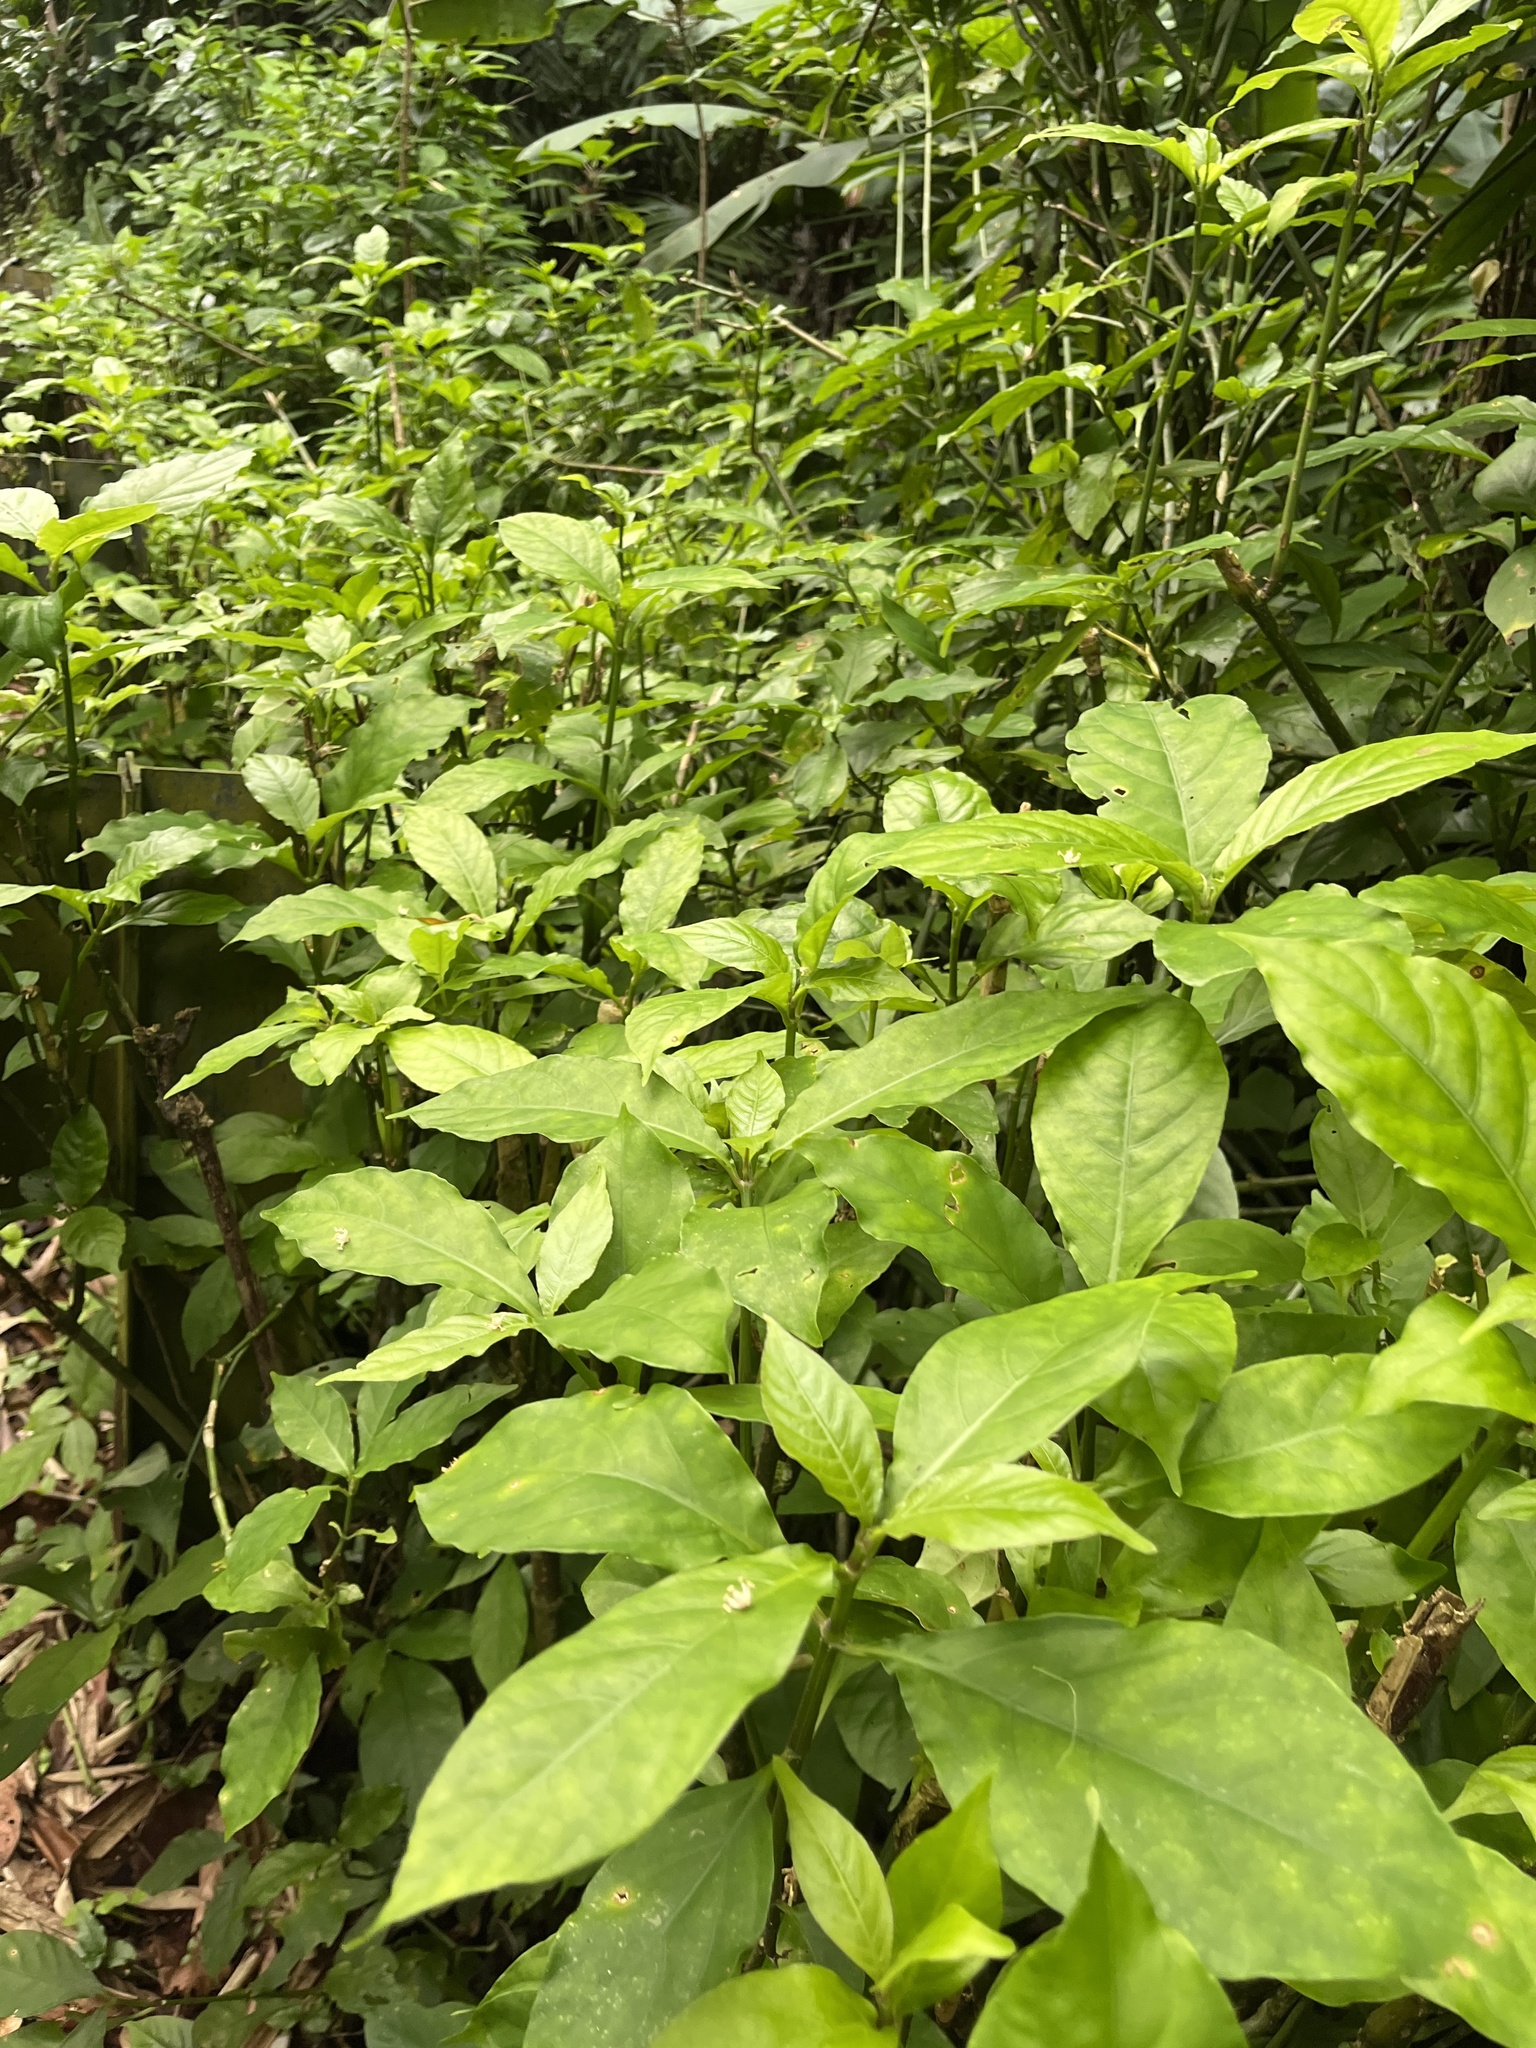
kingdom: Plantae
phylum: Tracheophyta
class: Magnoliopsida
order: Lamiales
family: Acanthaceae
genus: Odontonema
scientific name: Odontonema cuspidatum
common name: Mottled toothedthread
